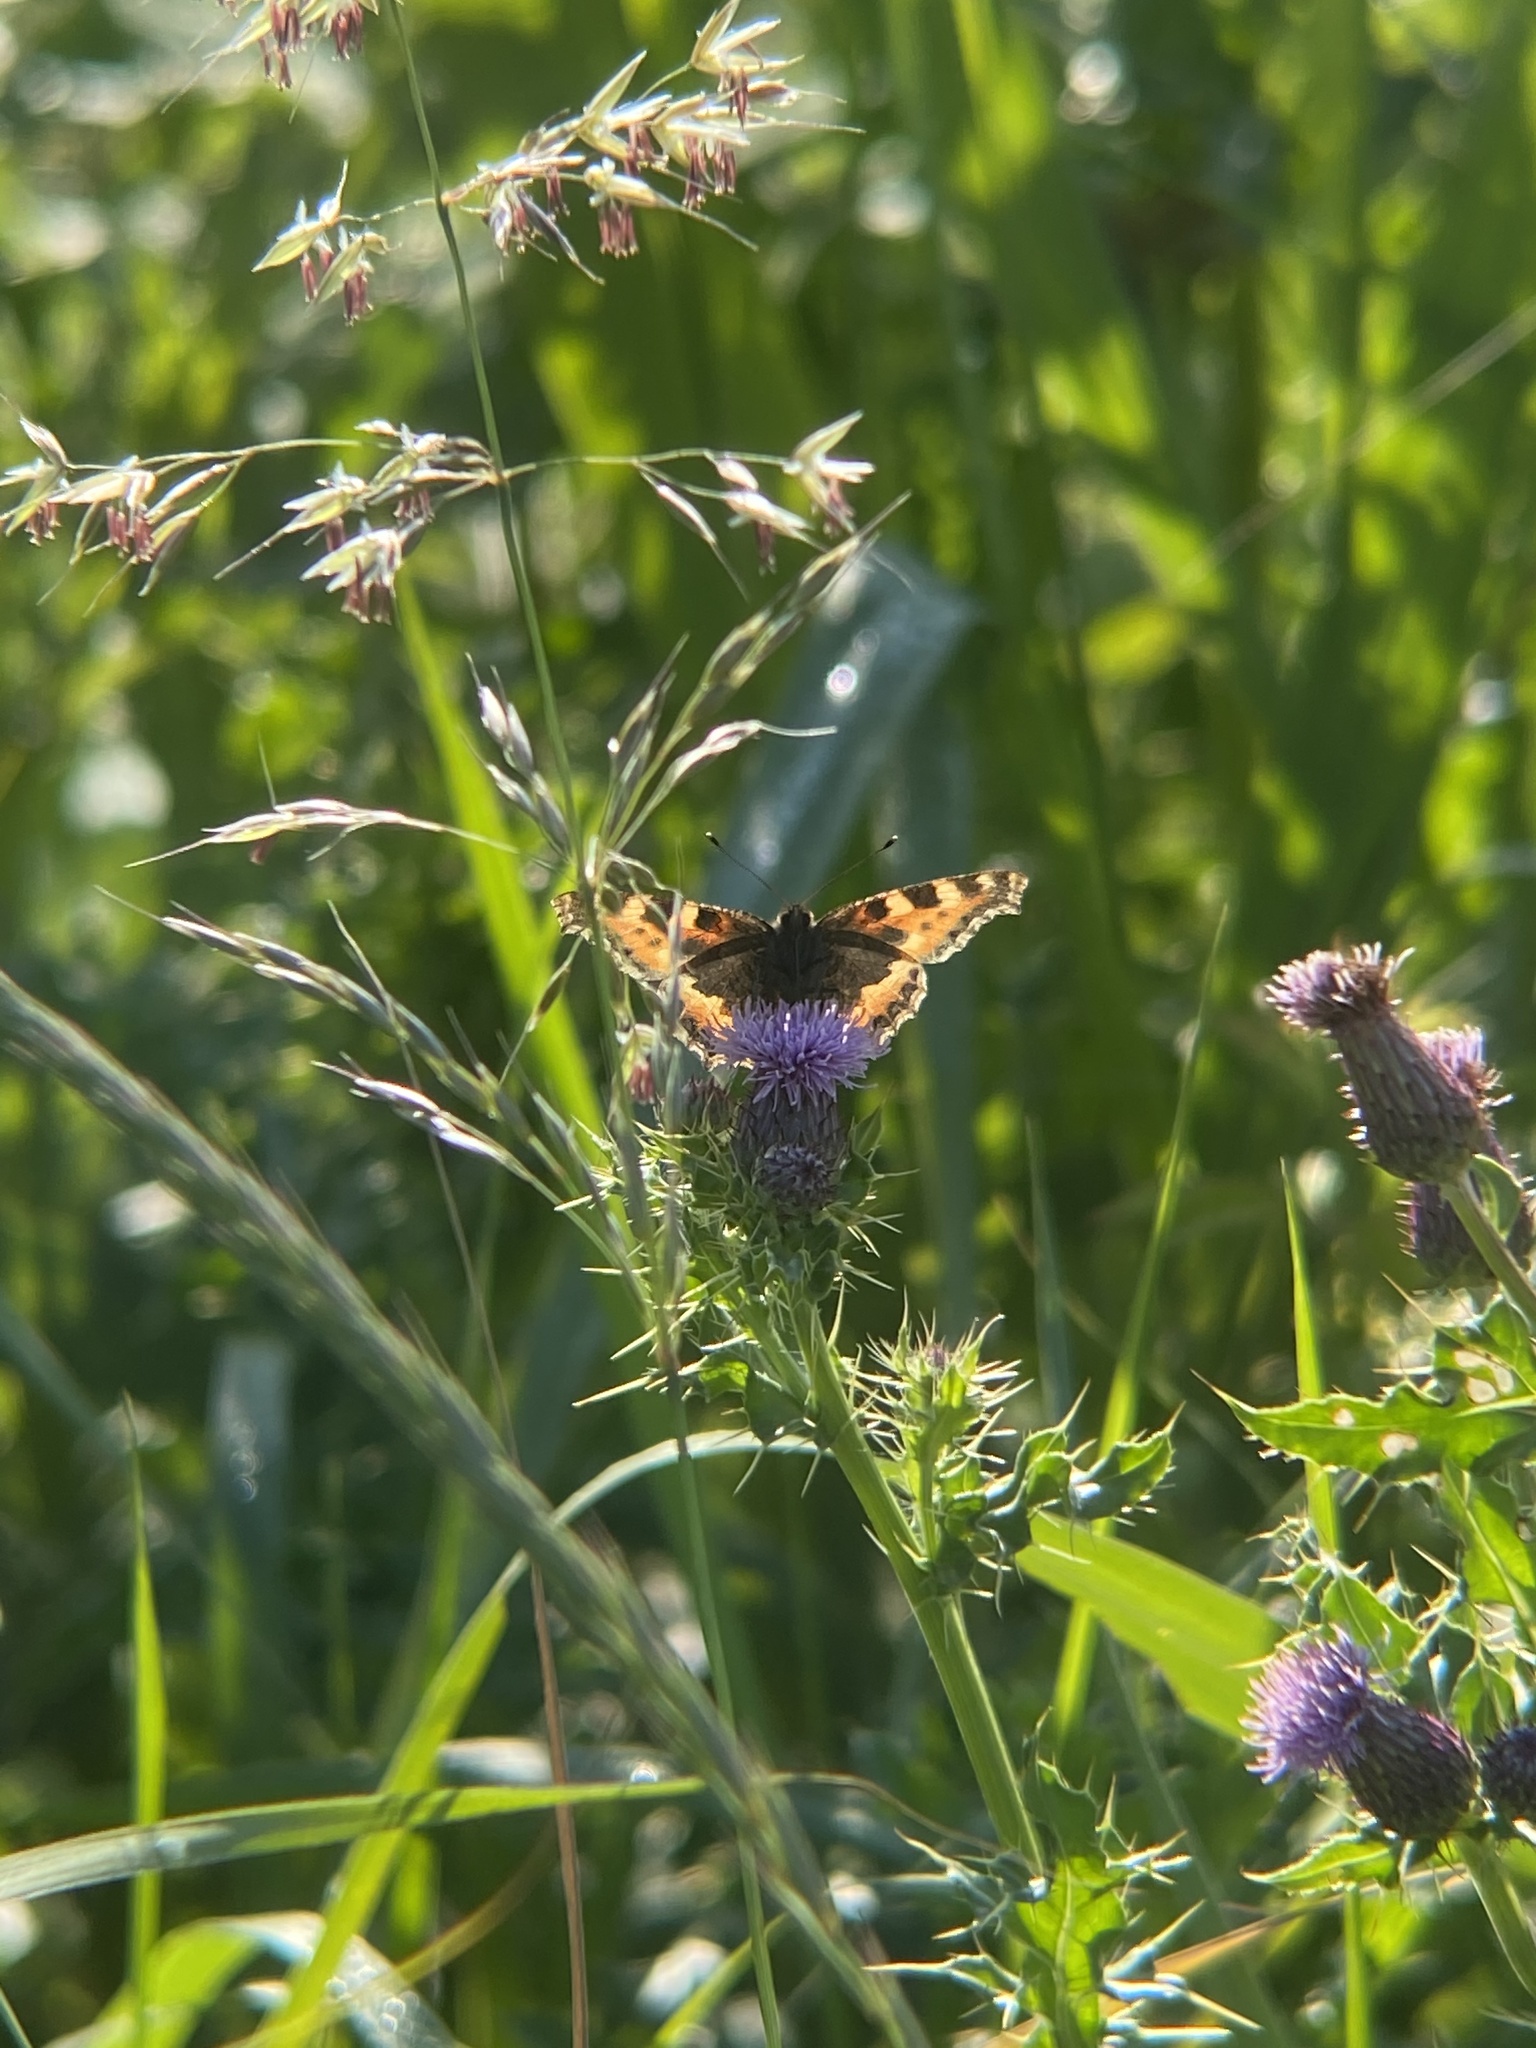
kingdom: Animalia
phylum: Arthropoda
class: Insecta
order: Lepidoptera
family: Nymphalidae
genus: Aglais
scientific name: Aglais urticae
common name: Small tortoiseshell
